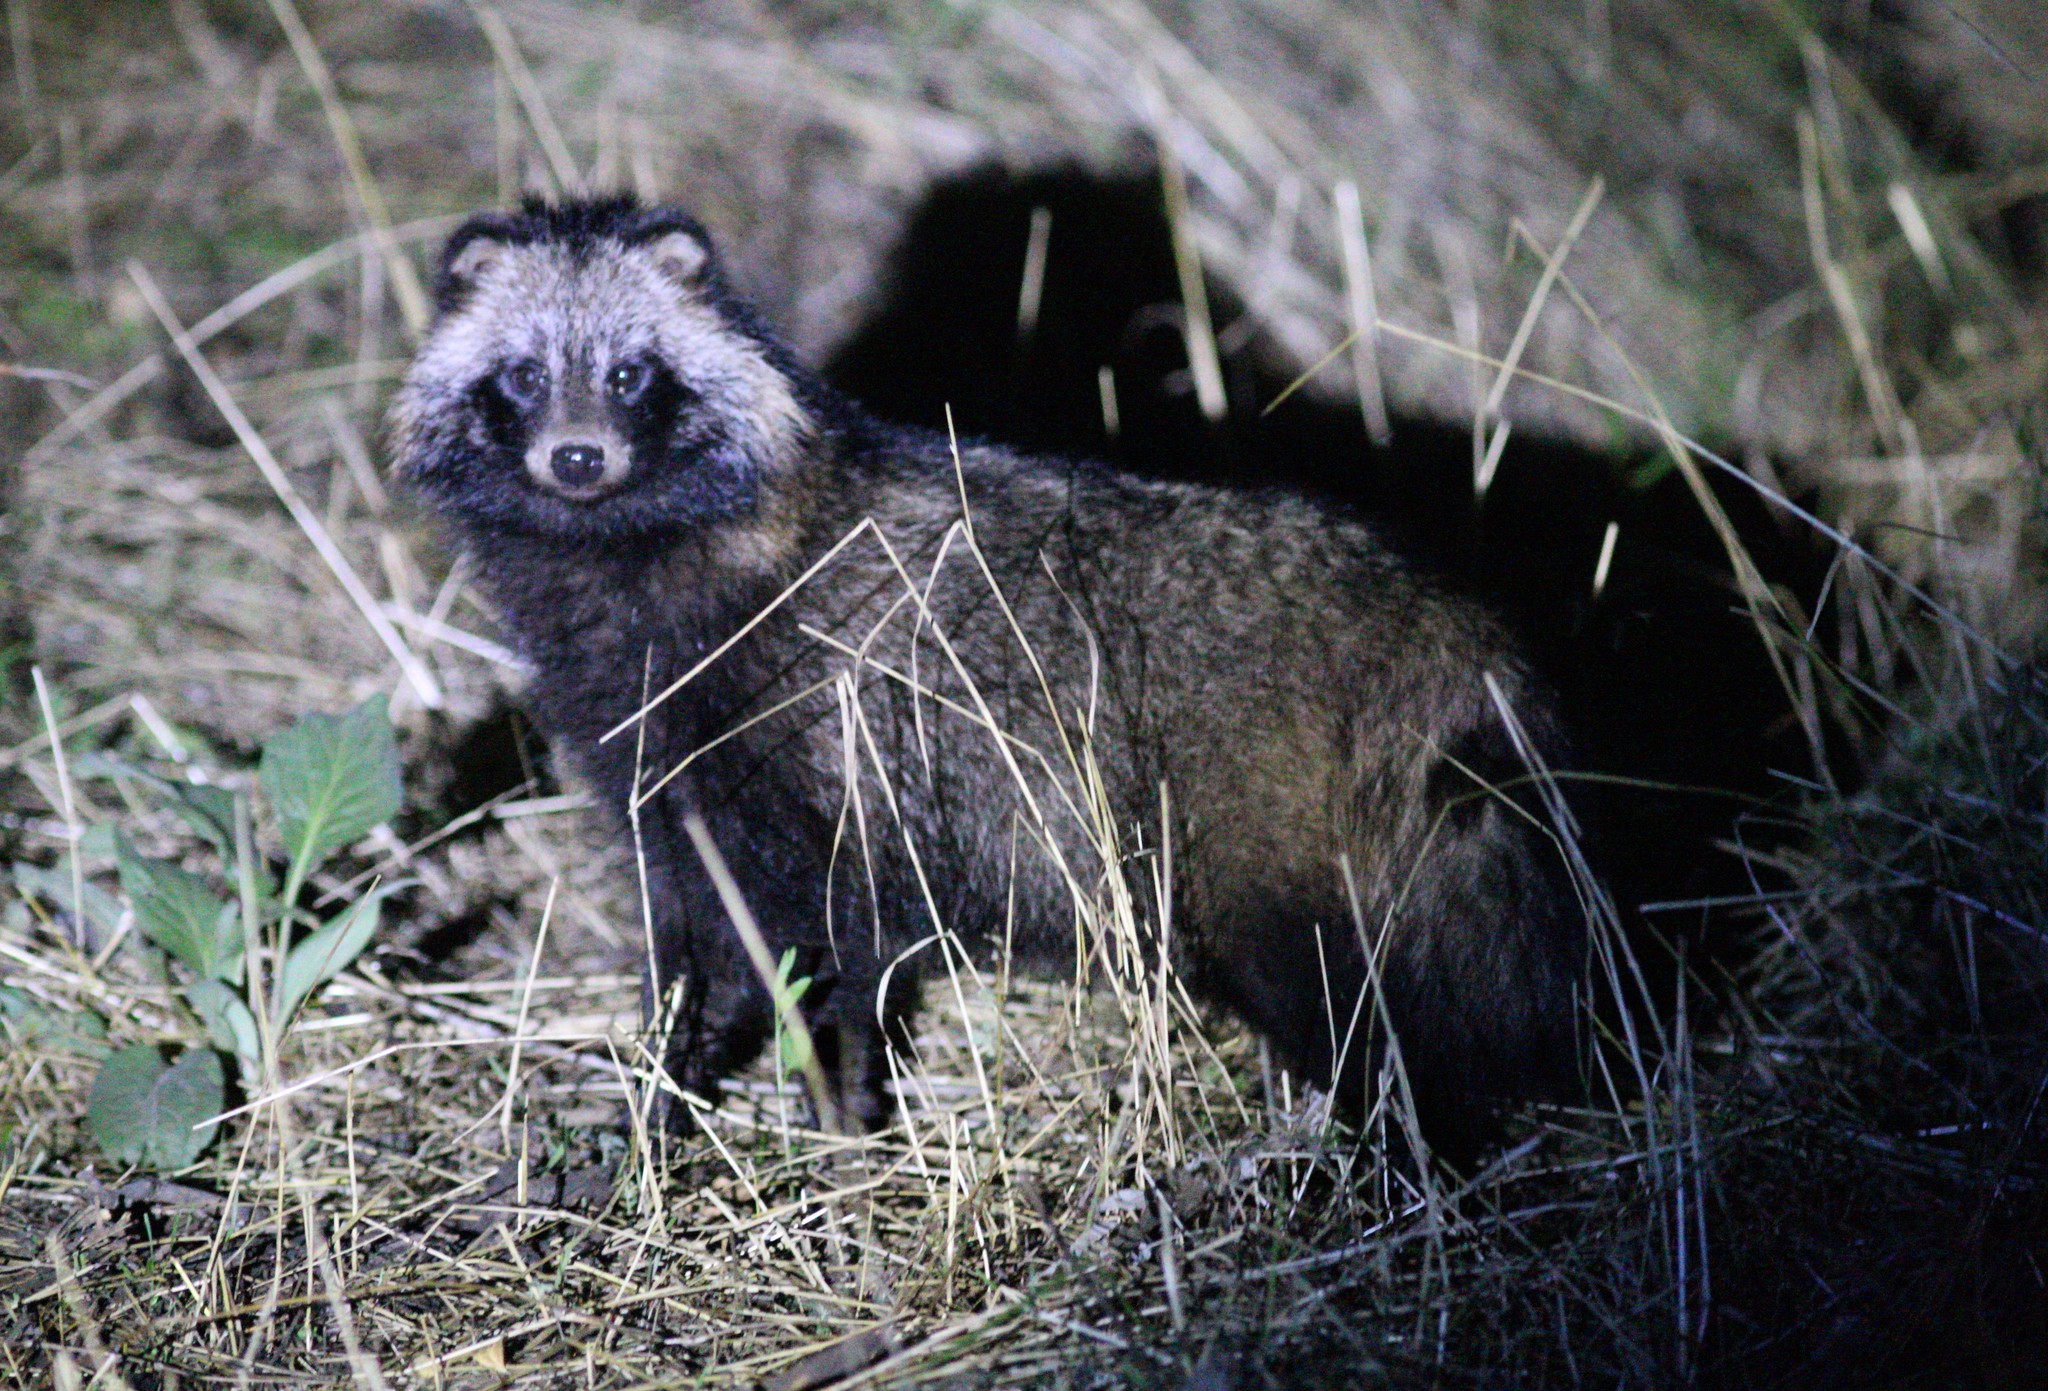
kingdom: Animalia
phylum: Chordata
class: Mammalia
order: Carnivora
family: Canidae
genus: Nyctereutes
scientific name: Nyctereutes procyonoides
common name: Raccoon dog
